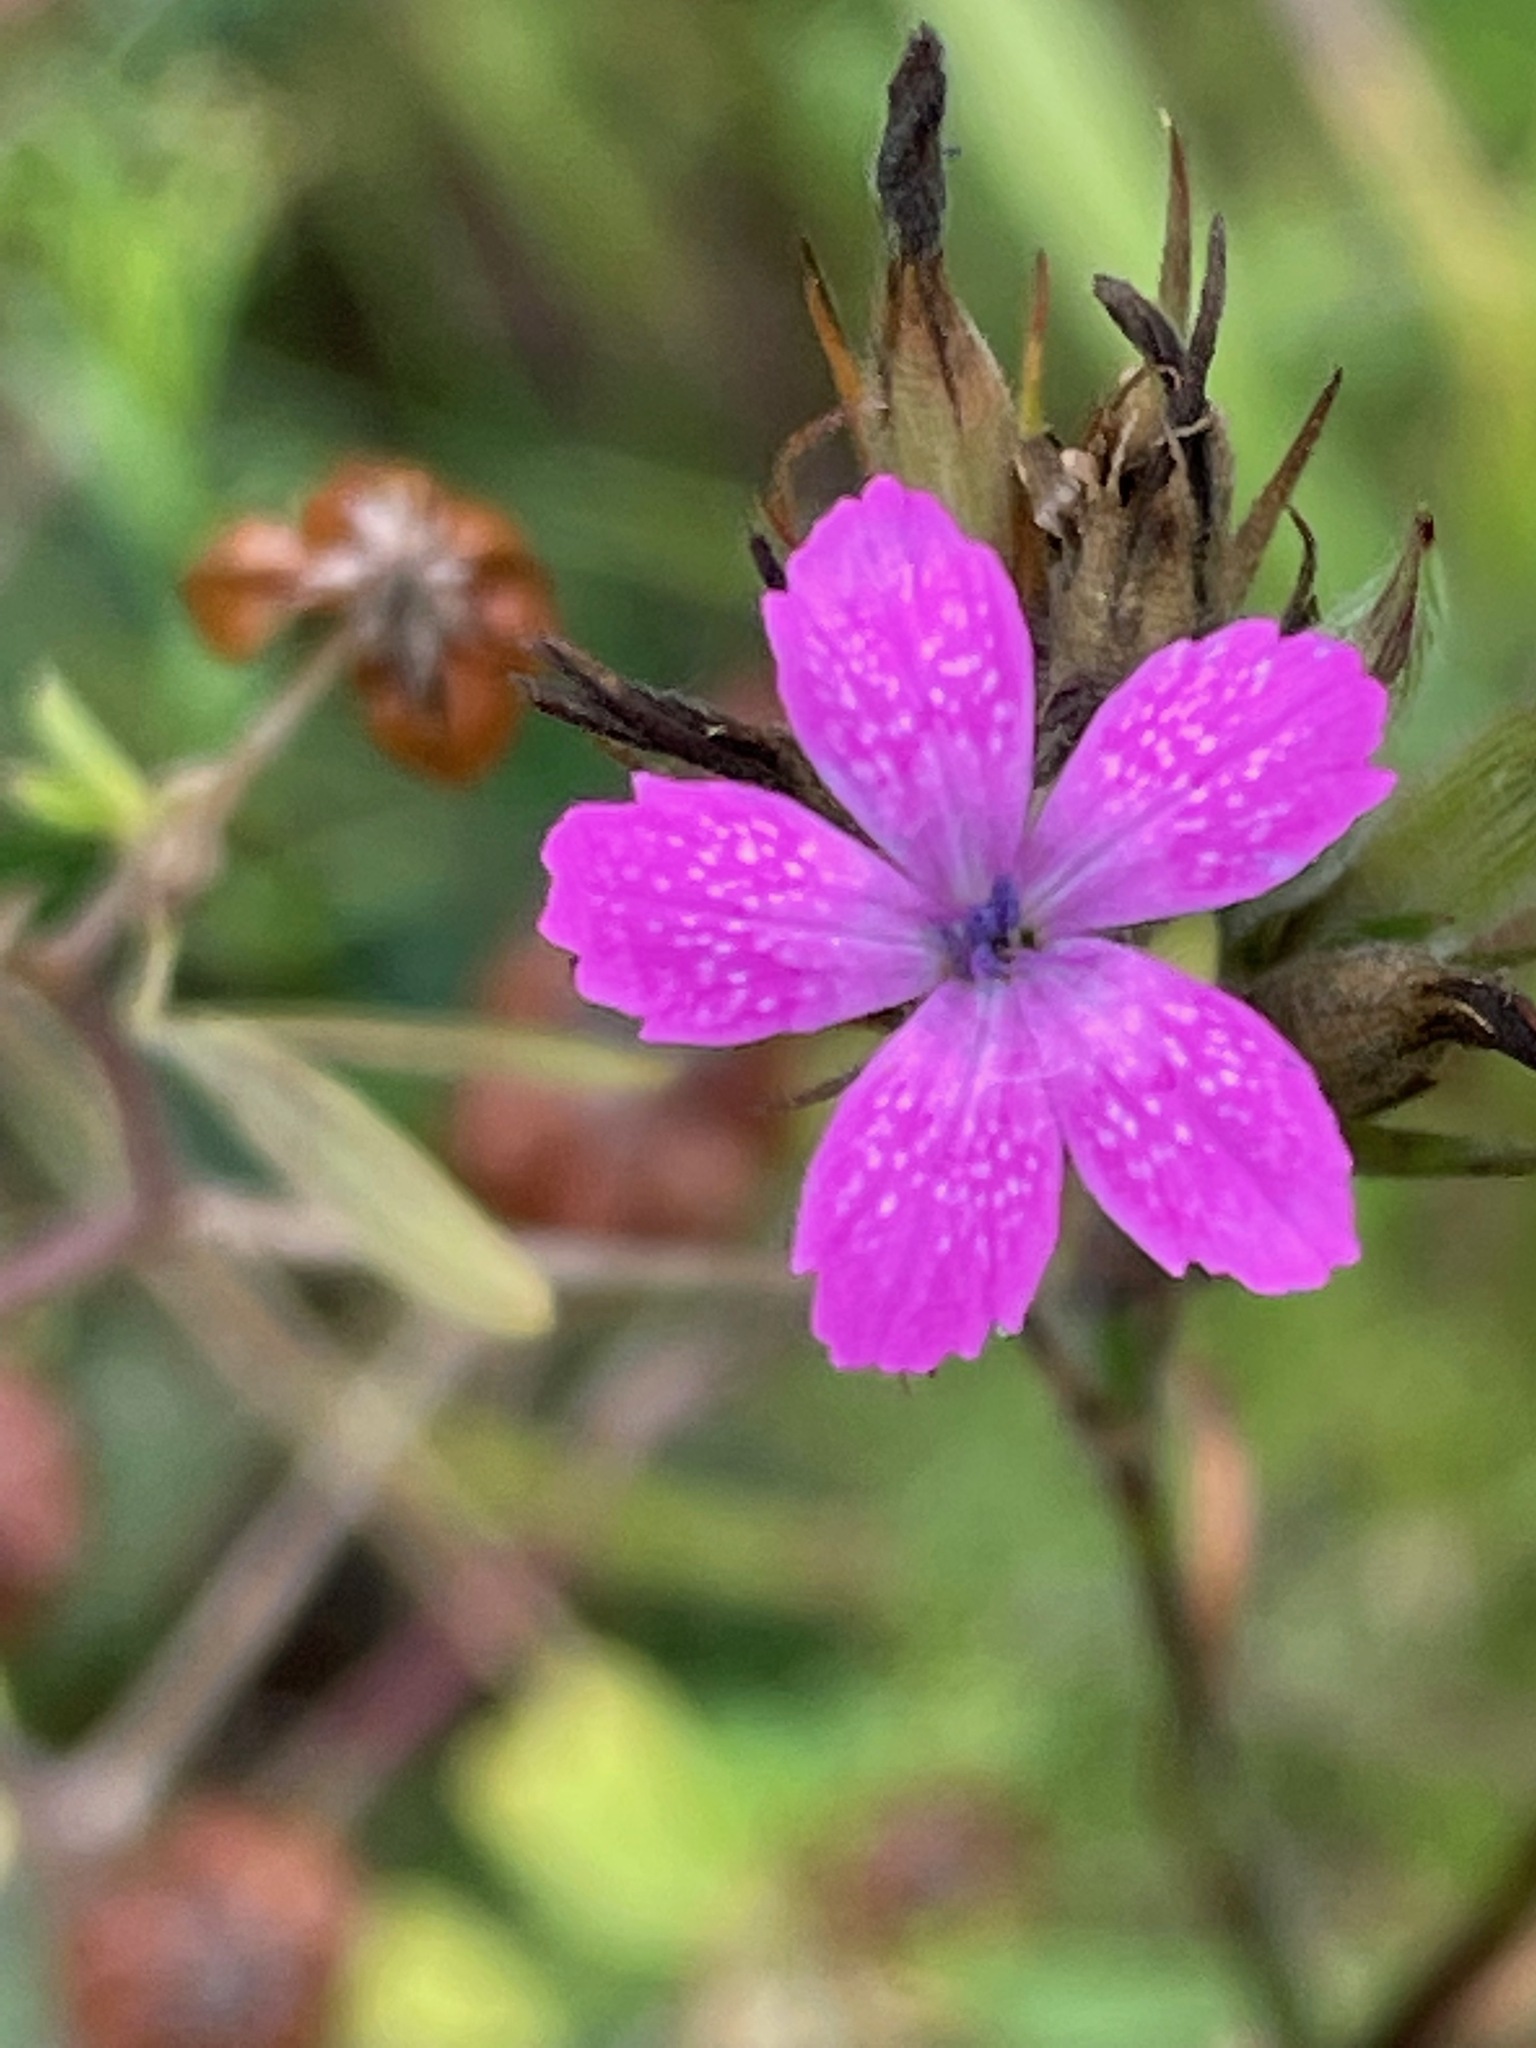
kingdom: Plantae
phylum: Tracheophyta
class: Magnoliopsida
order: Caryophyllales
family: Caryophyllaceae
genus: Dianthus
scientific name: Dianthus armeria
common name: Deptford pink
